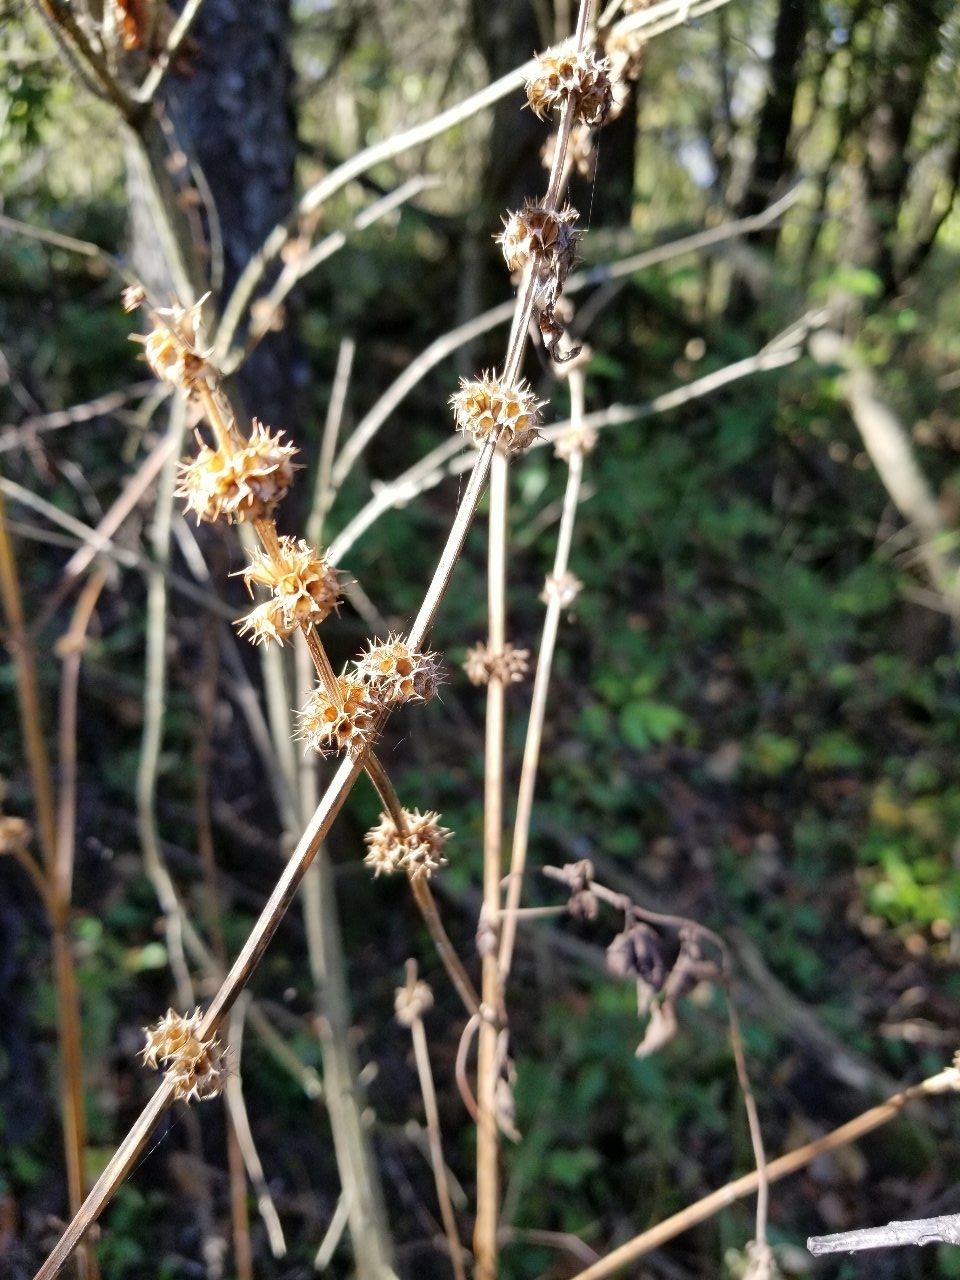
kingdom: Plantae
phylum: Tracheophyta
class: Magnoliopsida
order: Lamiales
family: Lamiaceae
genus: Leonurus
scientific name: Leonurus cardiaca
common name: Motherwort
